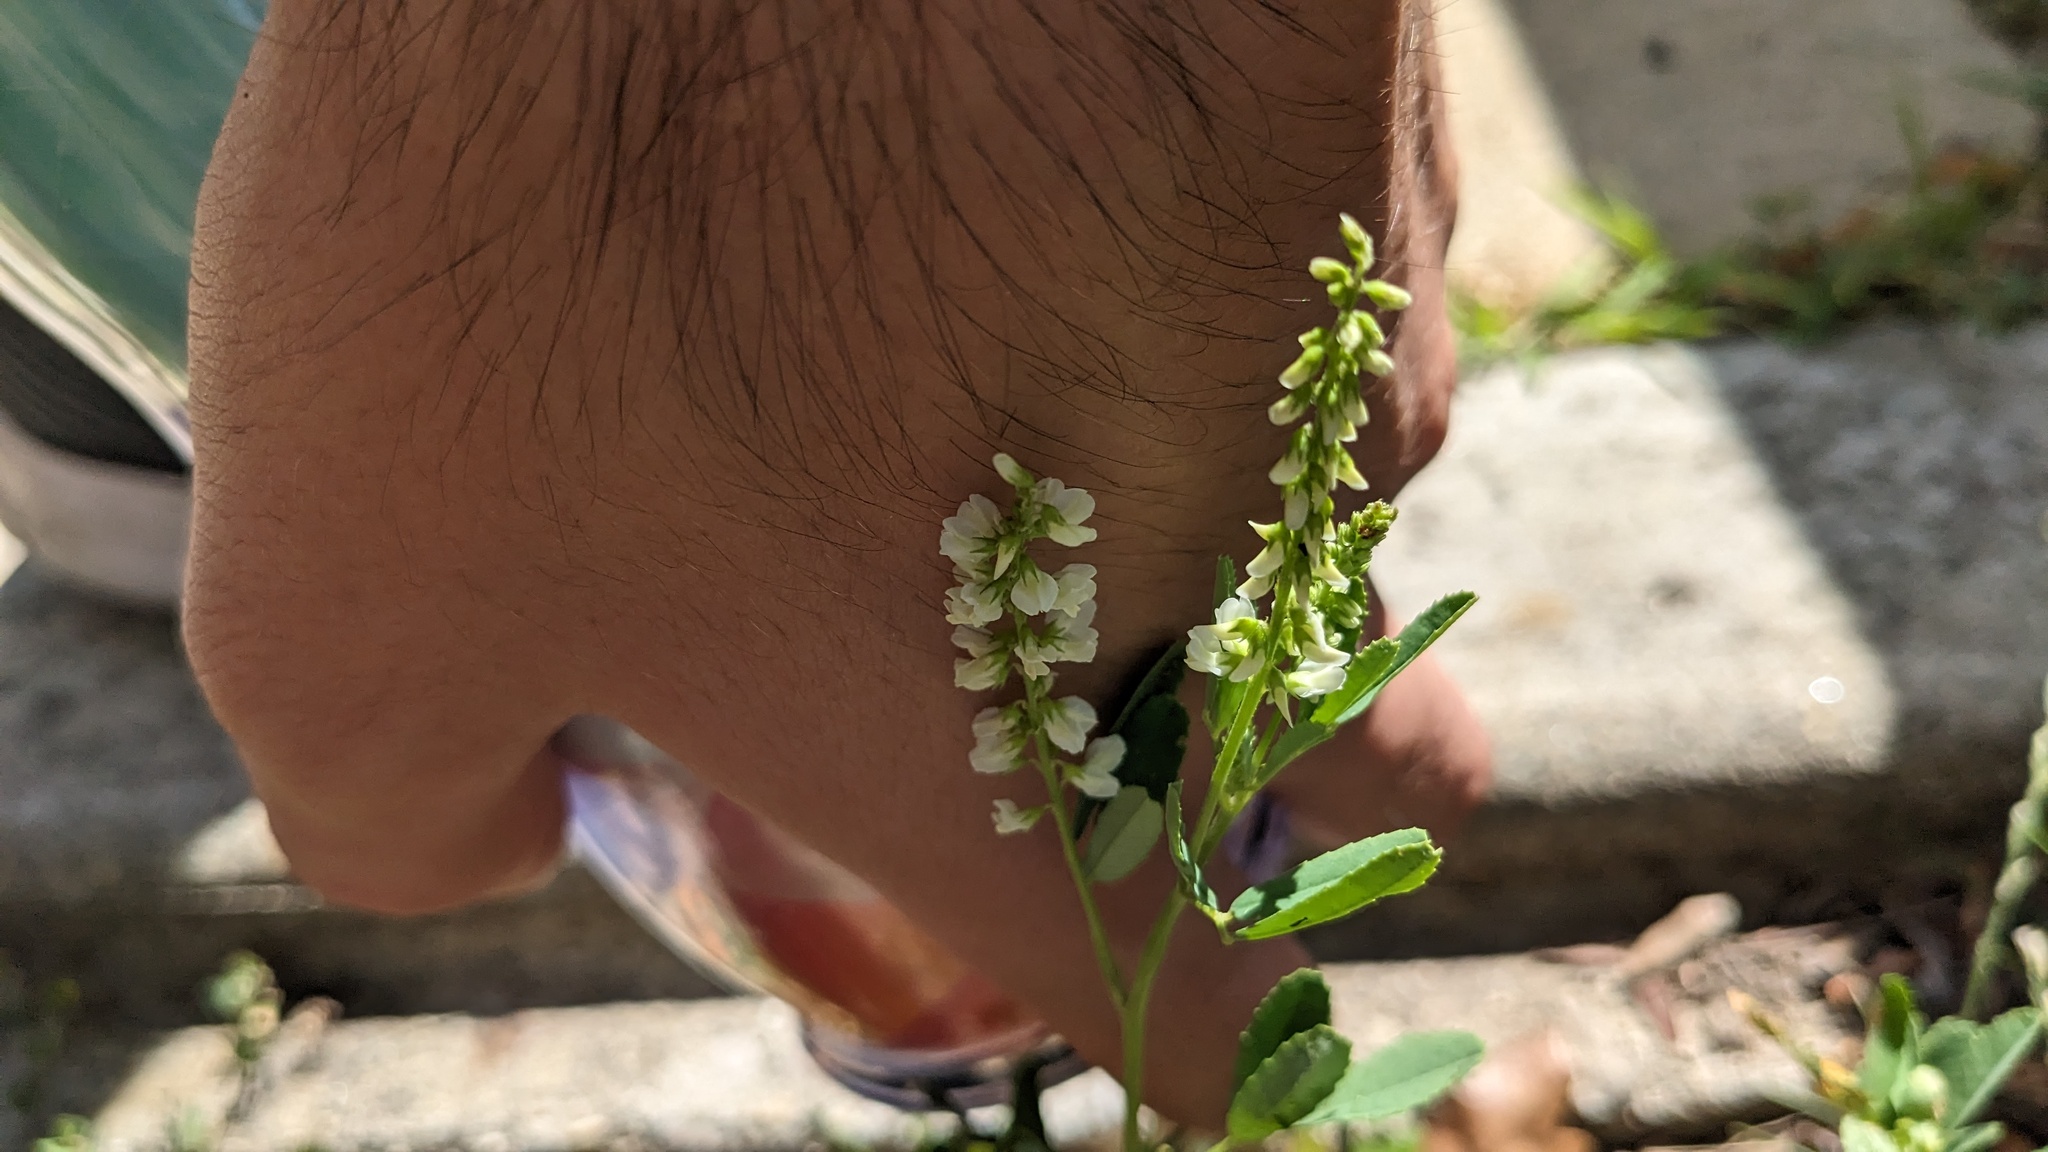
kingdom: Plantae
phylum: Tracheophyta
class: Magnoliopsida
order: Fabales
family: Fabaceae
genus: Melilotus
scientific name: Melilotus albus
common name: White melilot
